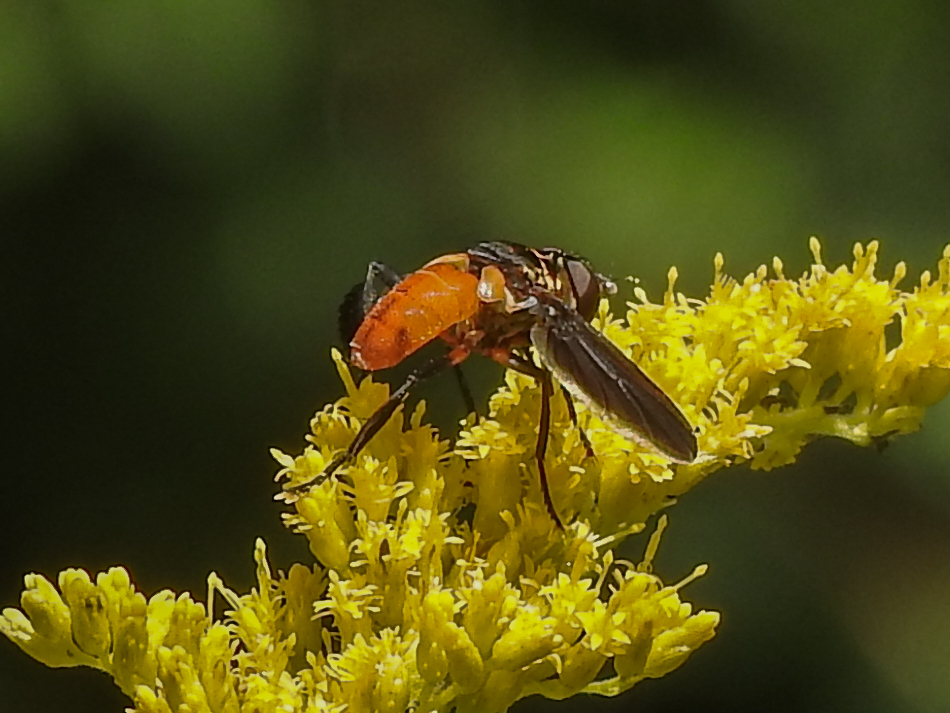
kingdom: Animalia
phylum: Arthropoda
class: Insecta
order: Diptera
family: Tachinidae
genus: Trichopoda
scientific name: Trichopoda pennipes
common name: Tachinid fly
